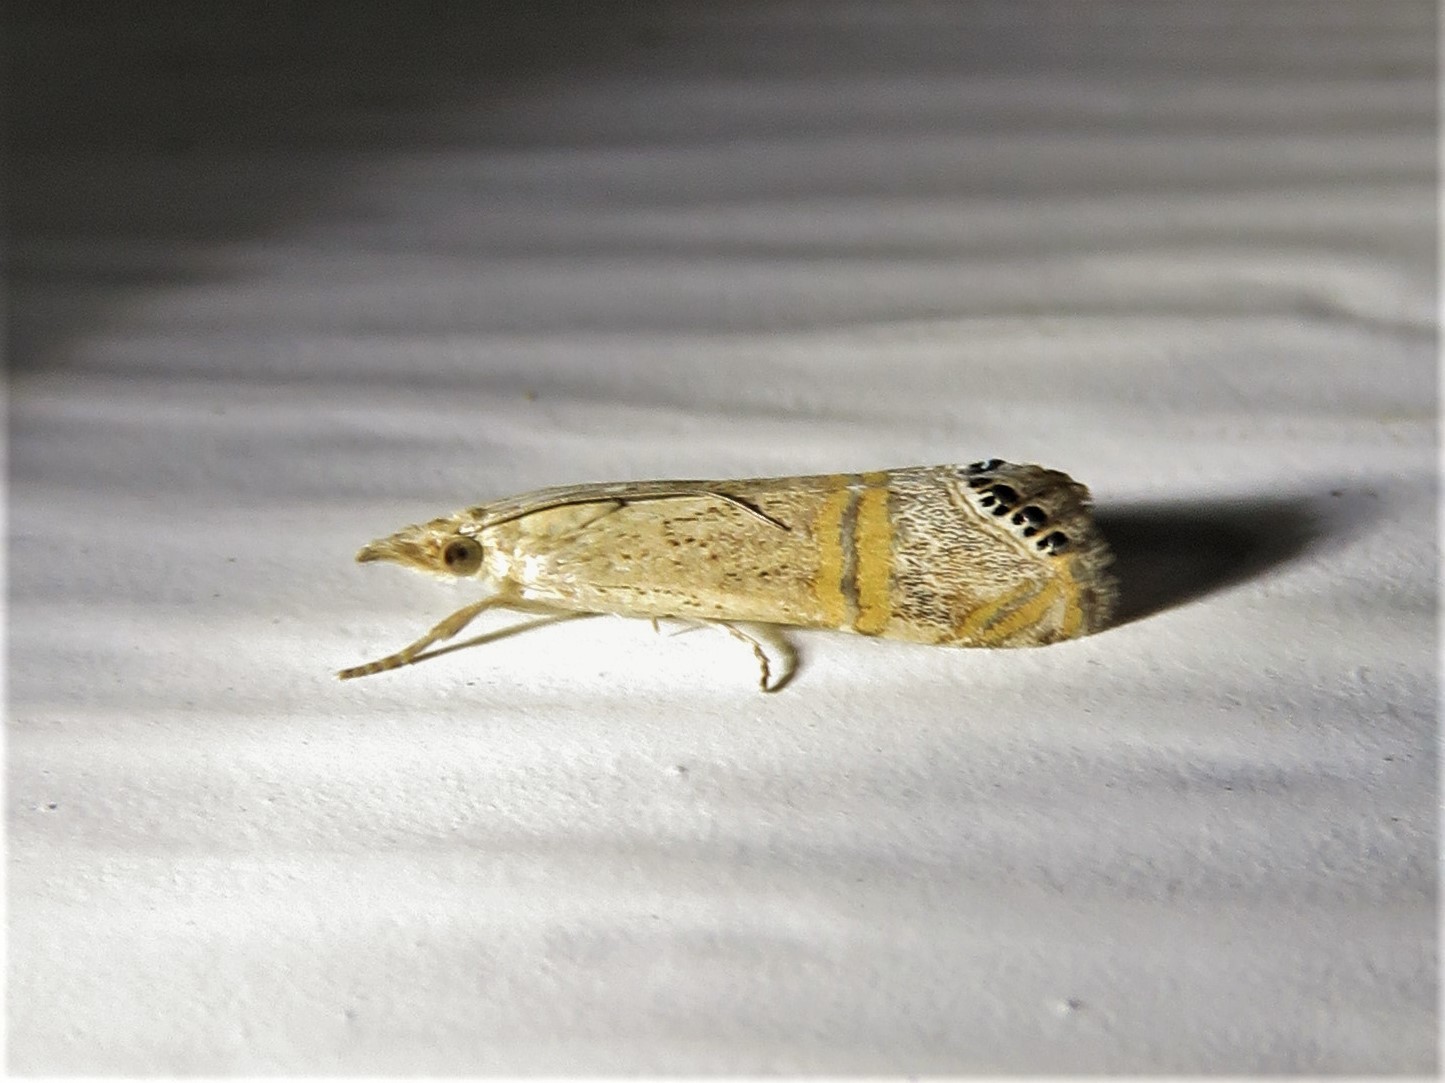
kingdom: Animalia
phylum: Arthropoda
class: Insecta
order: Lepidoptera
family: Crambidae
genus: Euchromius
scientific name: Euchromius ocellea
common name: Necklace veneer moth
